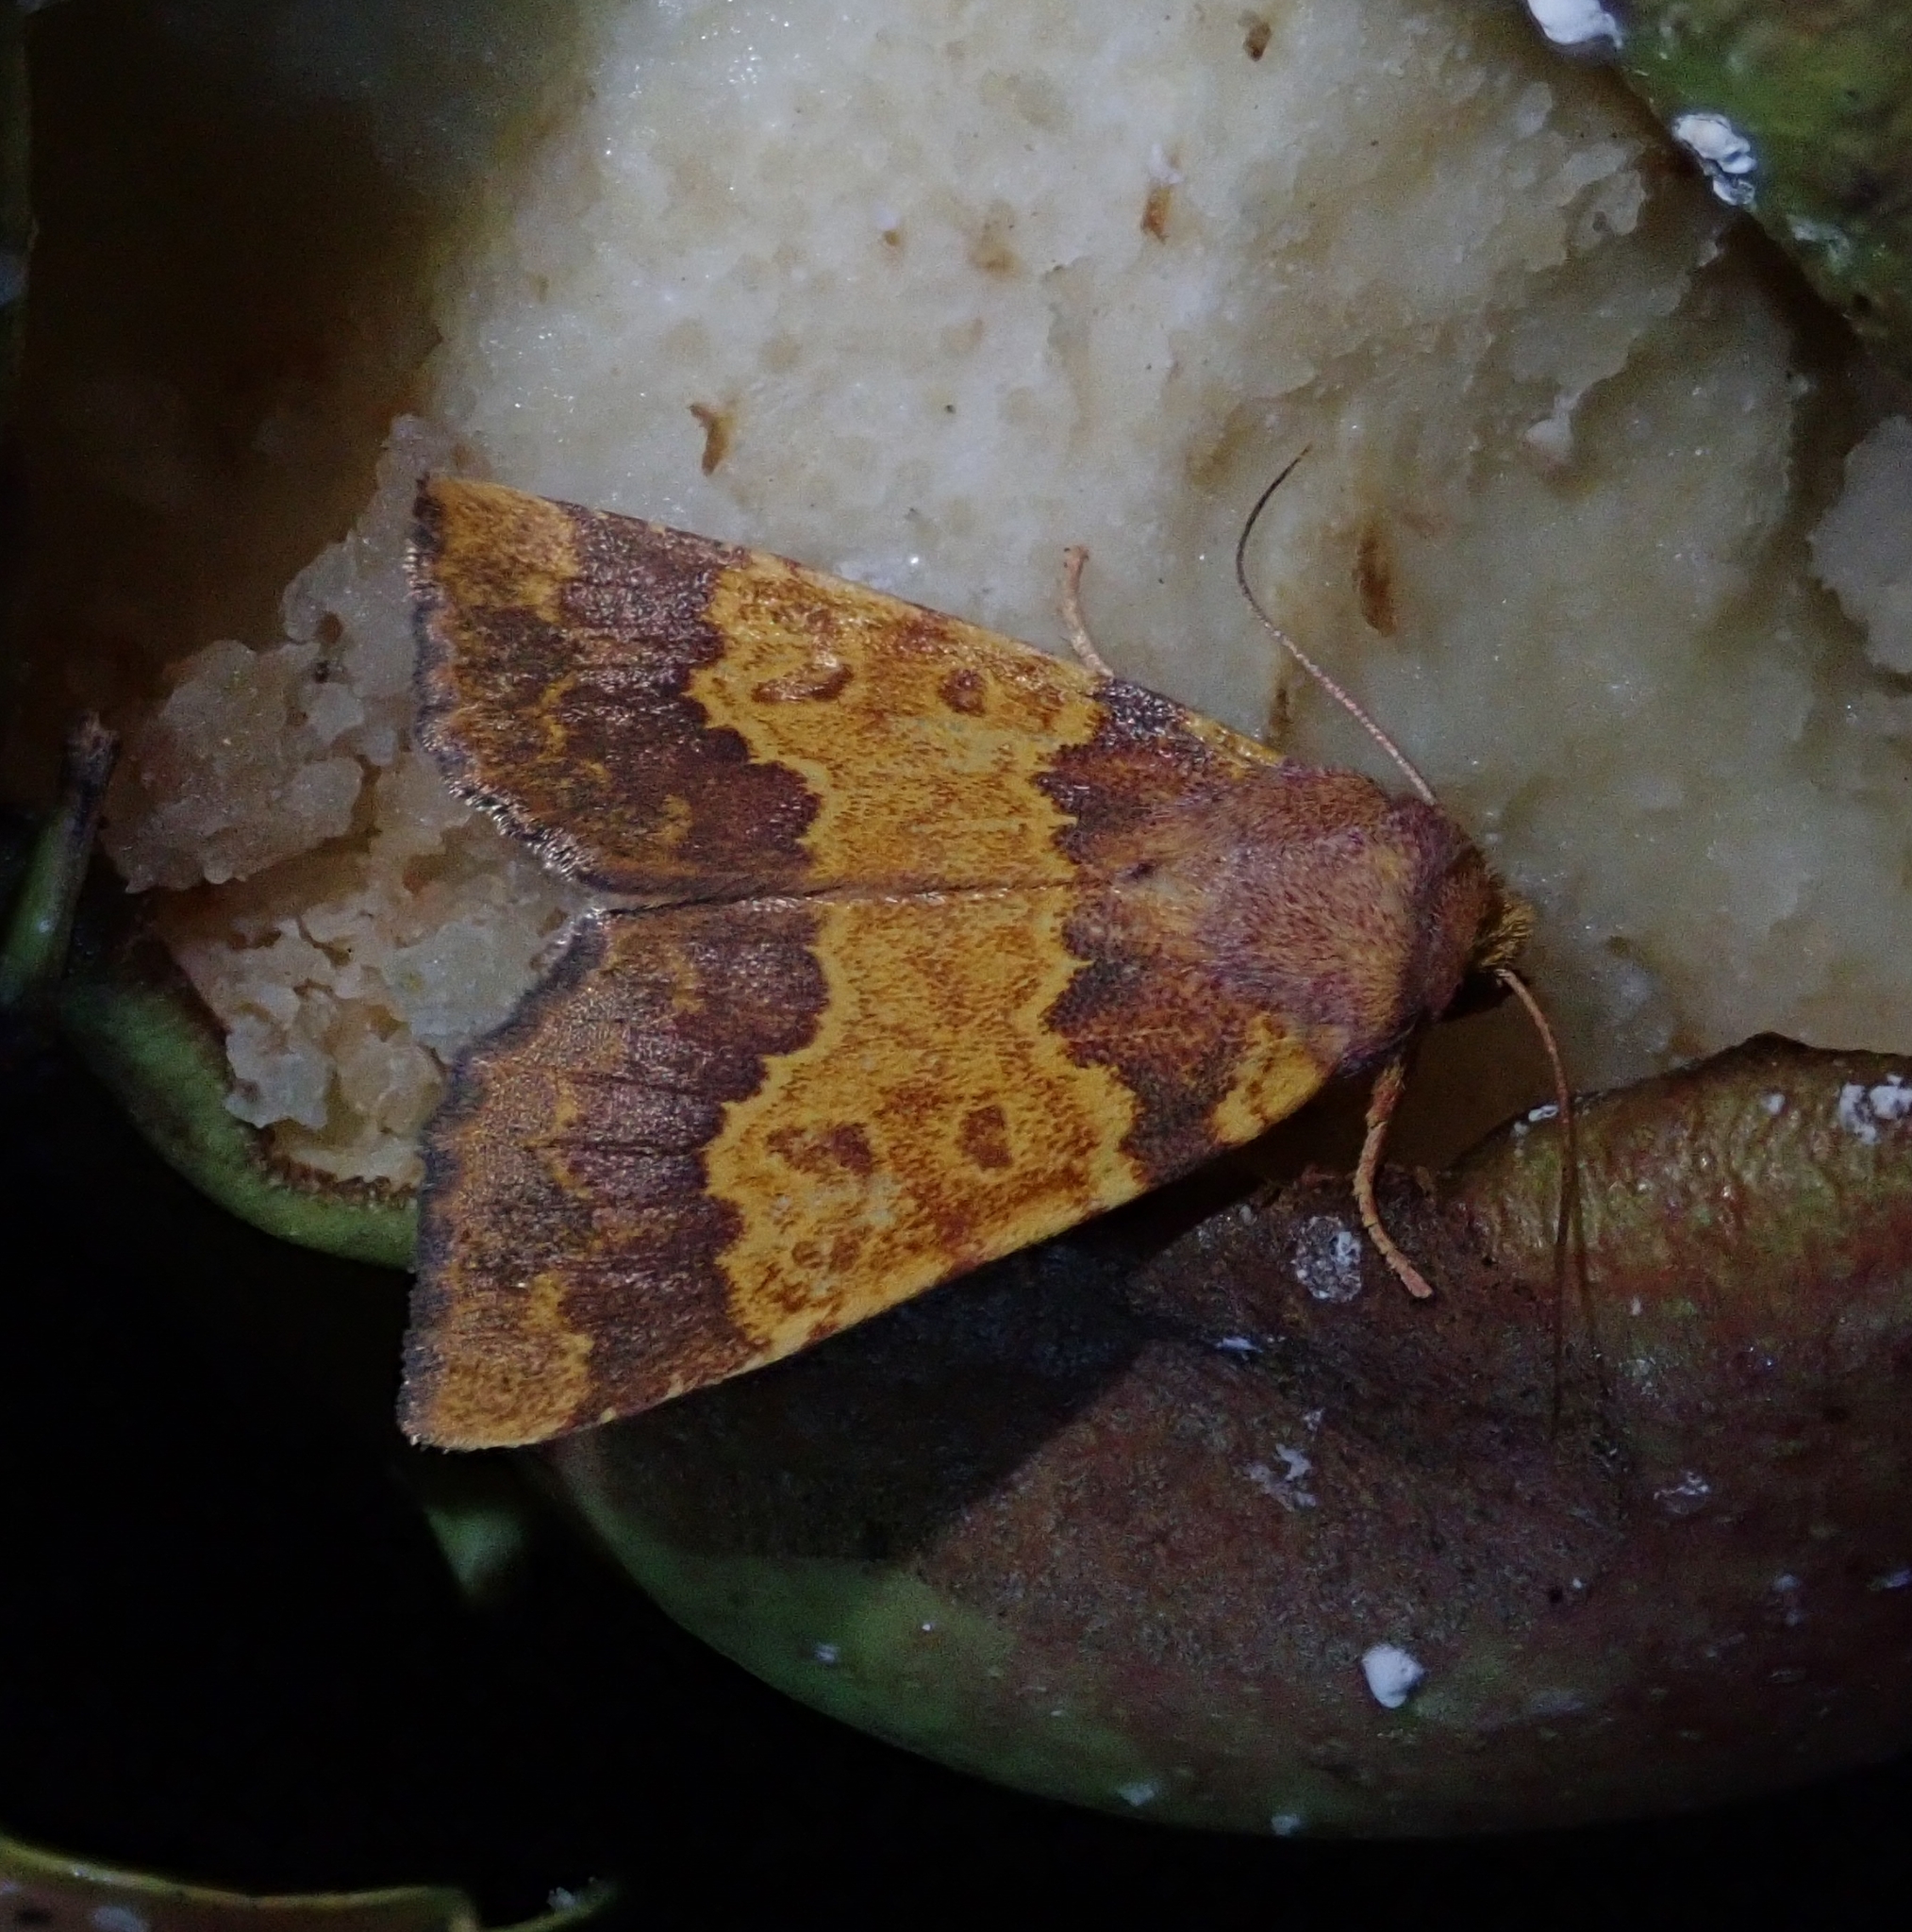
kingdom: Animalia
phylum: Arthropoda
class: Insecta
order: Lepidoptera
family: Noctuidae
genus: Tiliacea
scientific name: Tiliacea aurago
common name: Barred sallow
